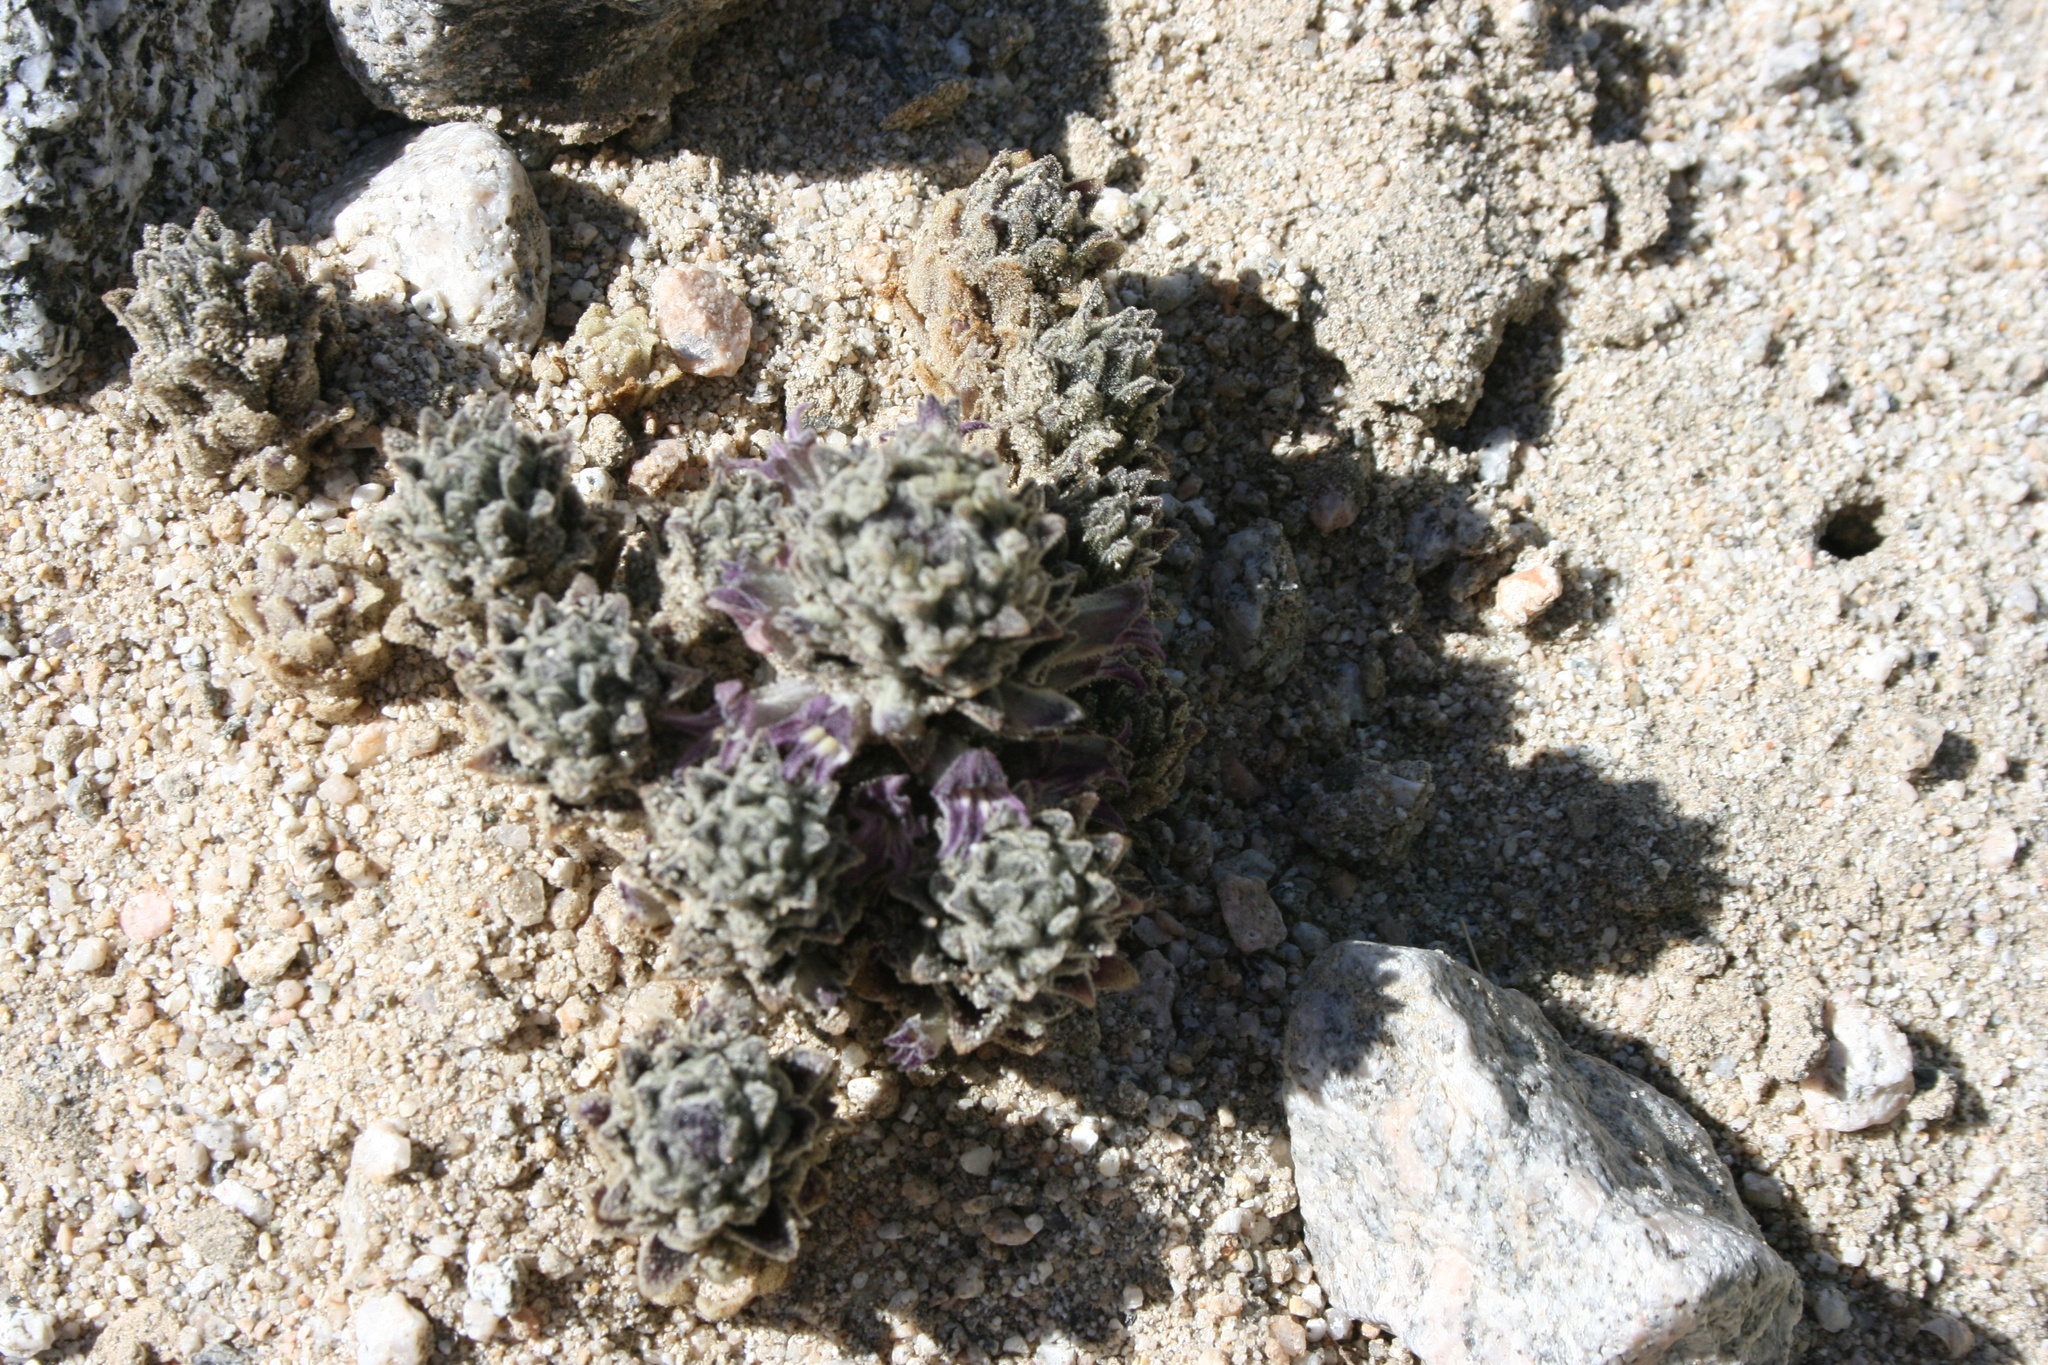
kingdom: Plantae
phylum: Tracheophyta
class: Magnoliopsida
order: Lamiales
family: Orobanchaceae
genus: Aphyllon
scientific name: Aphyllon cooperi
